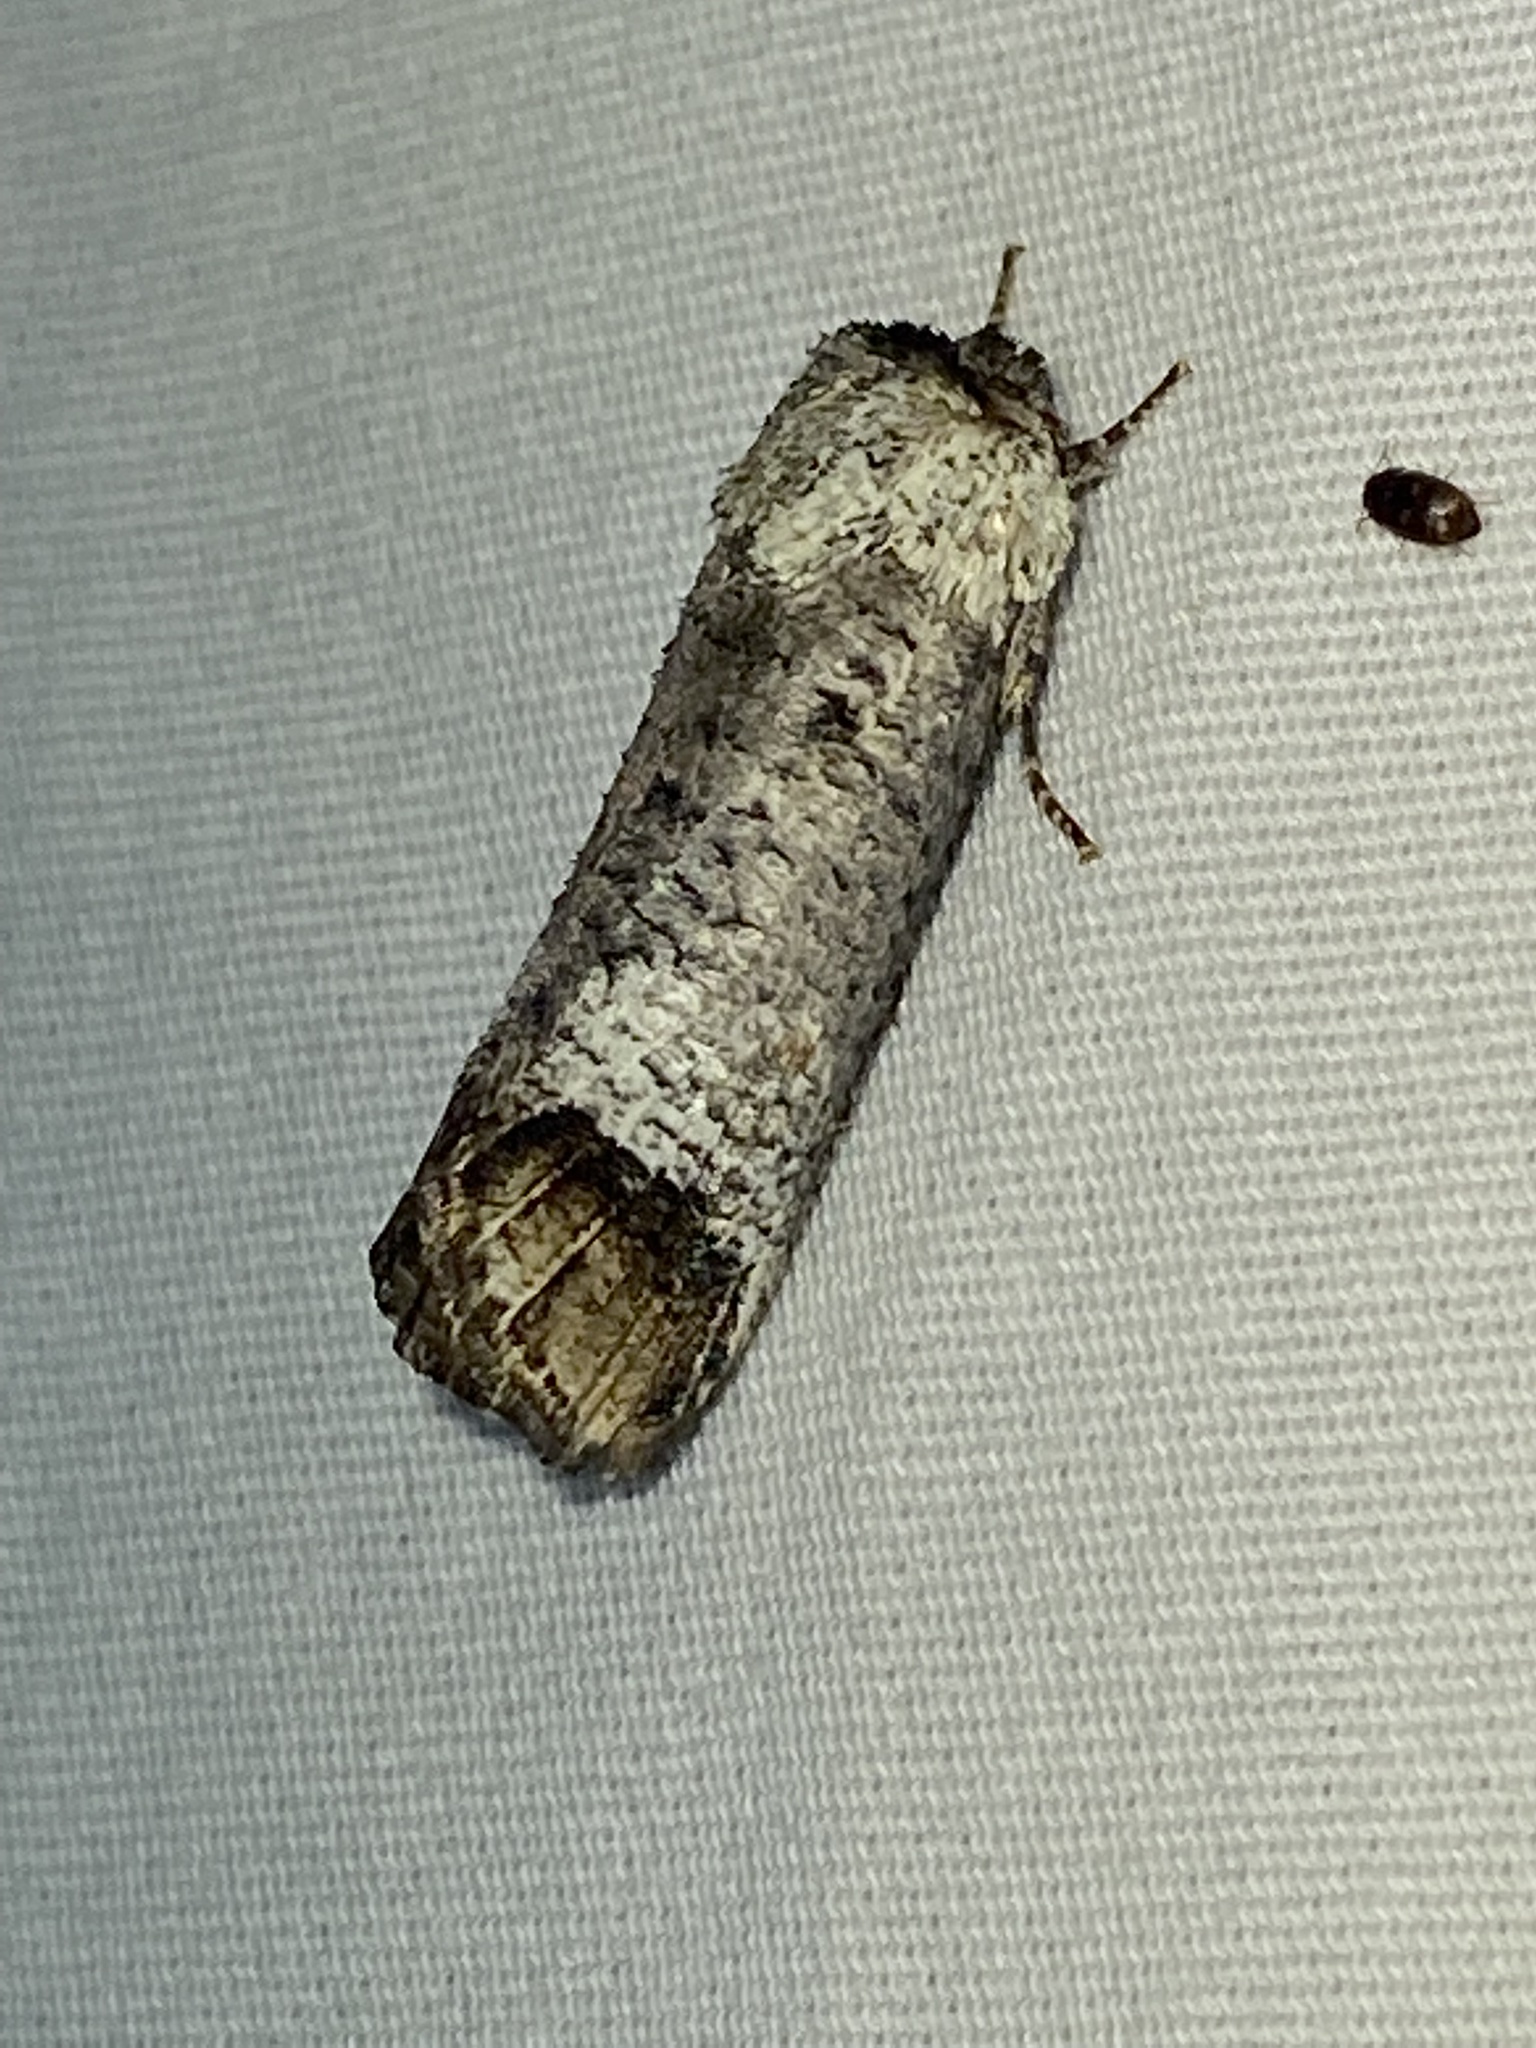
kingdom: Animalia
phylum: Arthropoda
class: Insecta
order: Lepidoptera
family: Cossidae
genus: Cossula
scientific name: Cossula magnifica
